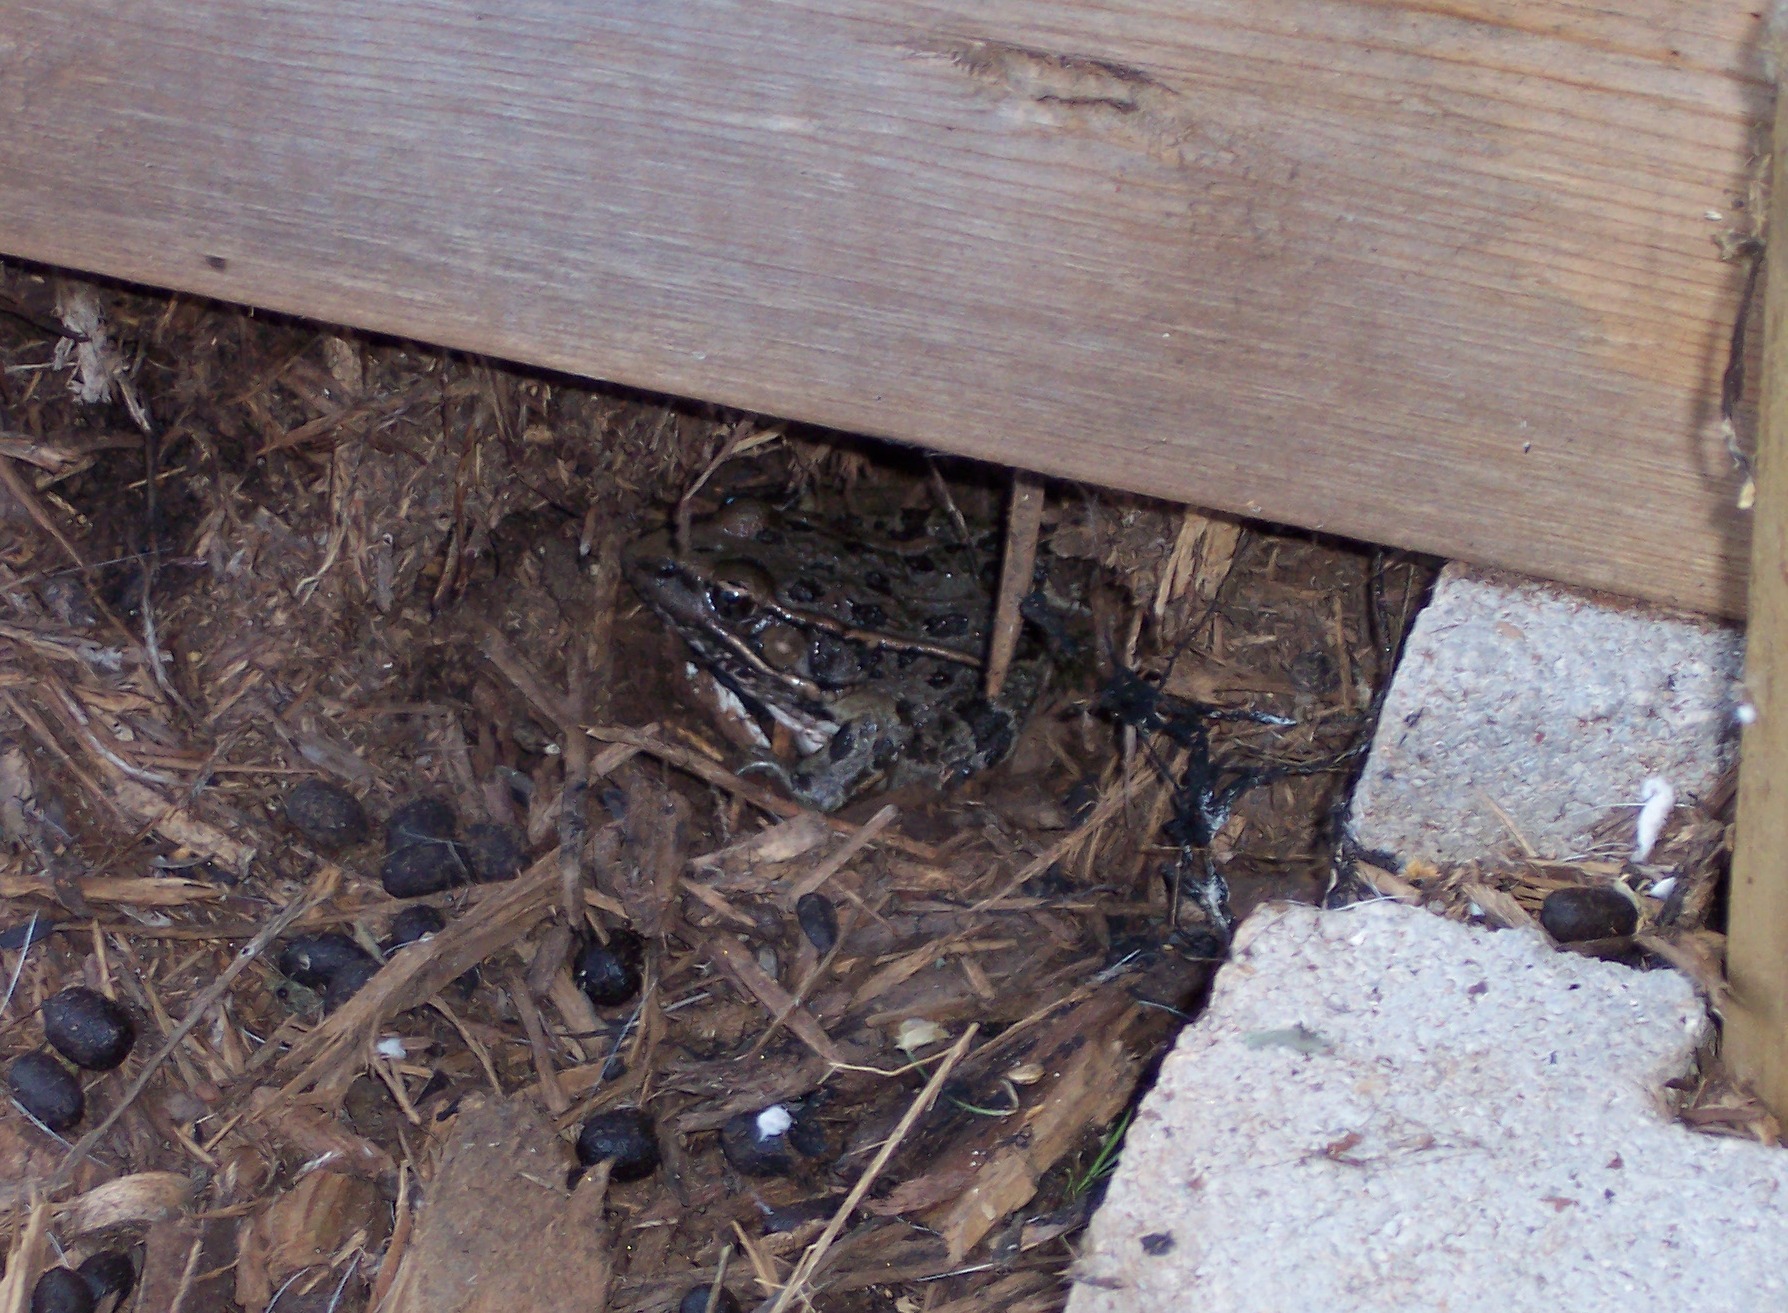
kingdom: Animalia
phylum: Chordata
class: Amphibia
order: Anura
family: Ranidae
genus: Lithobates
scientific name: Lithobates berlandieri
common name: Rio grande leopard frog
